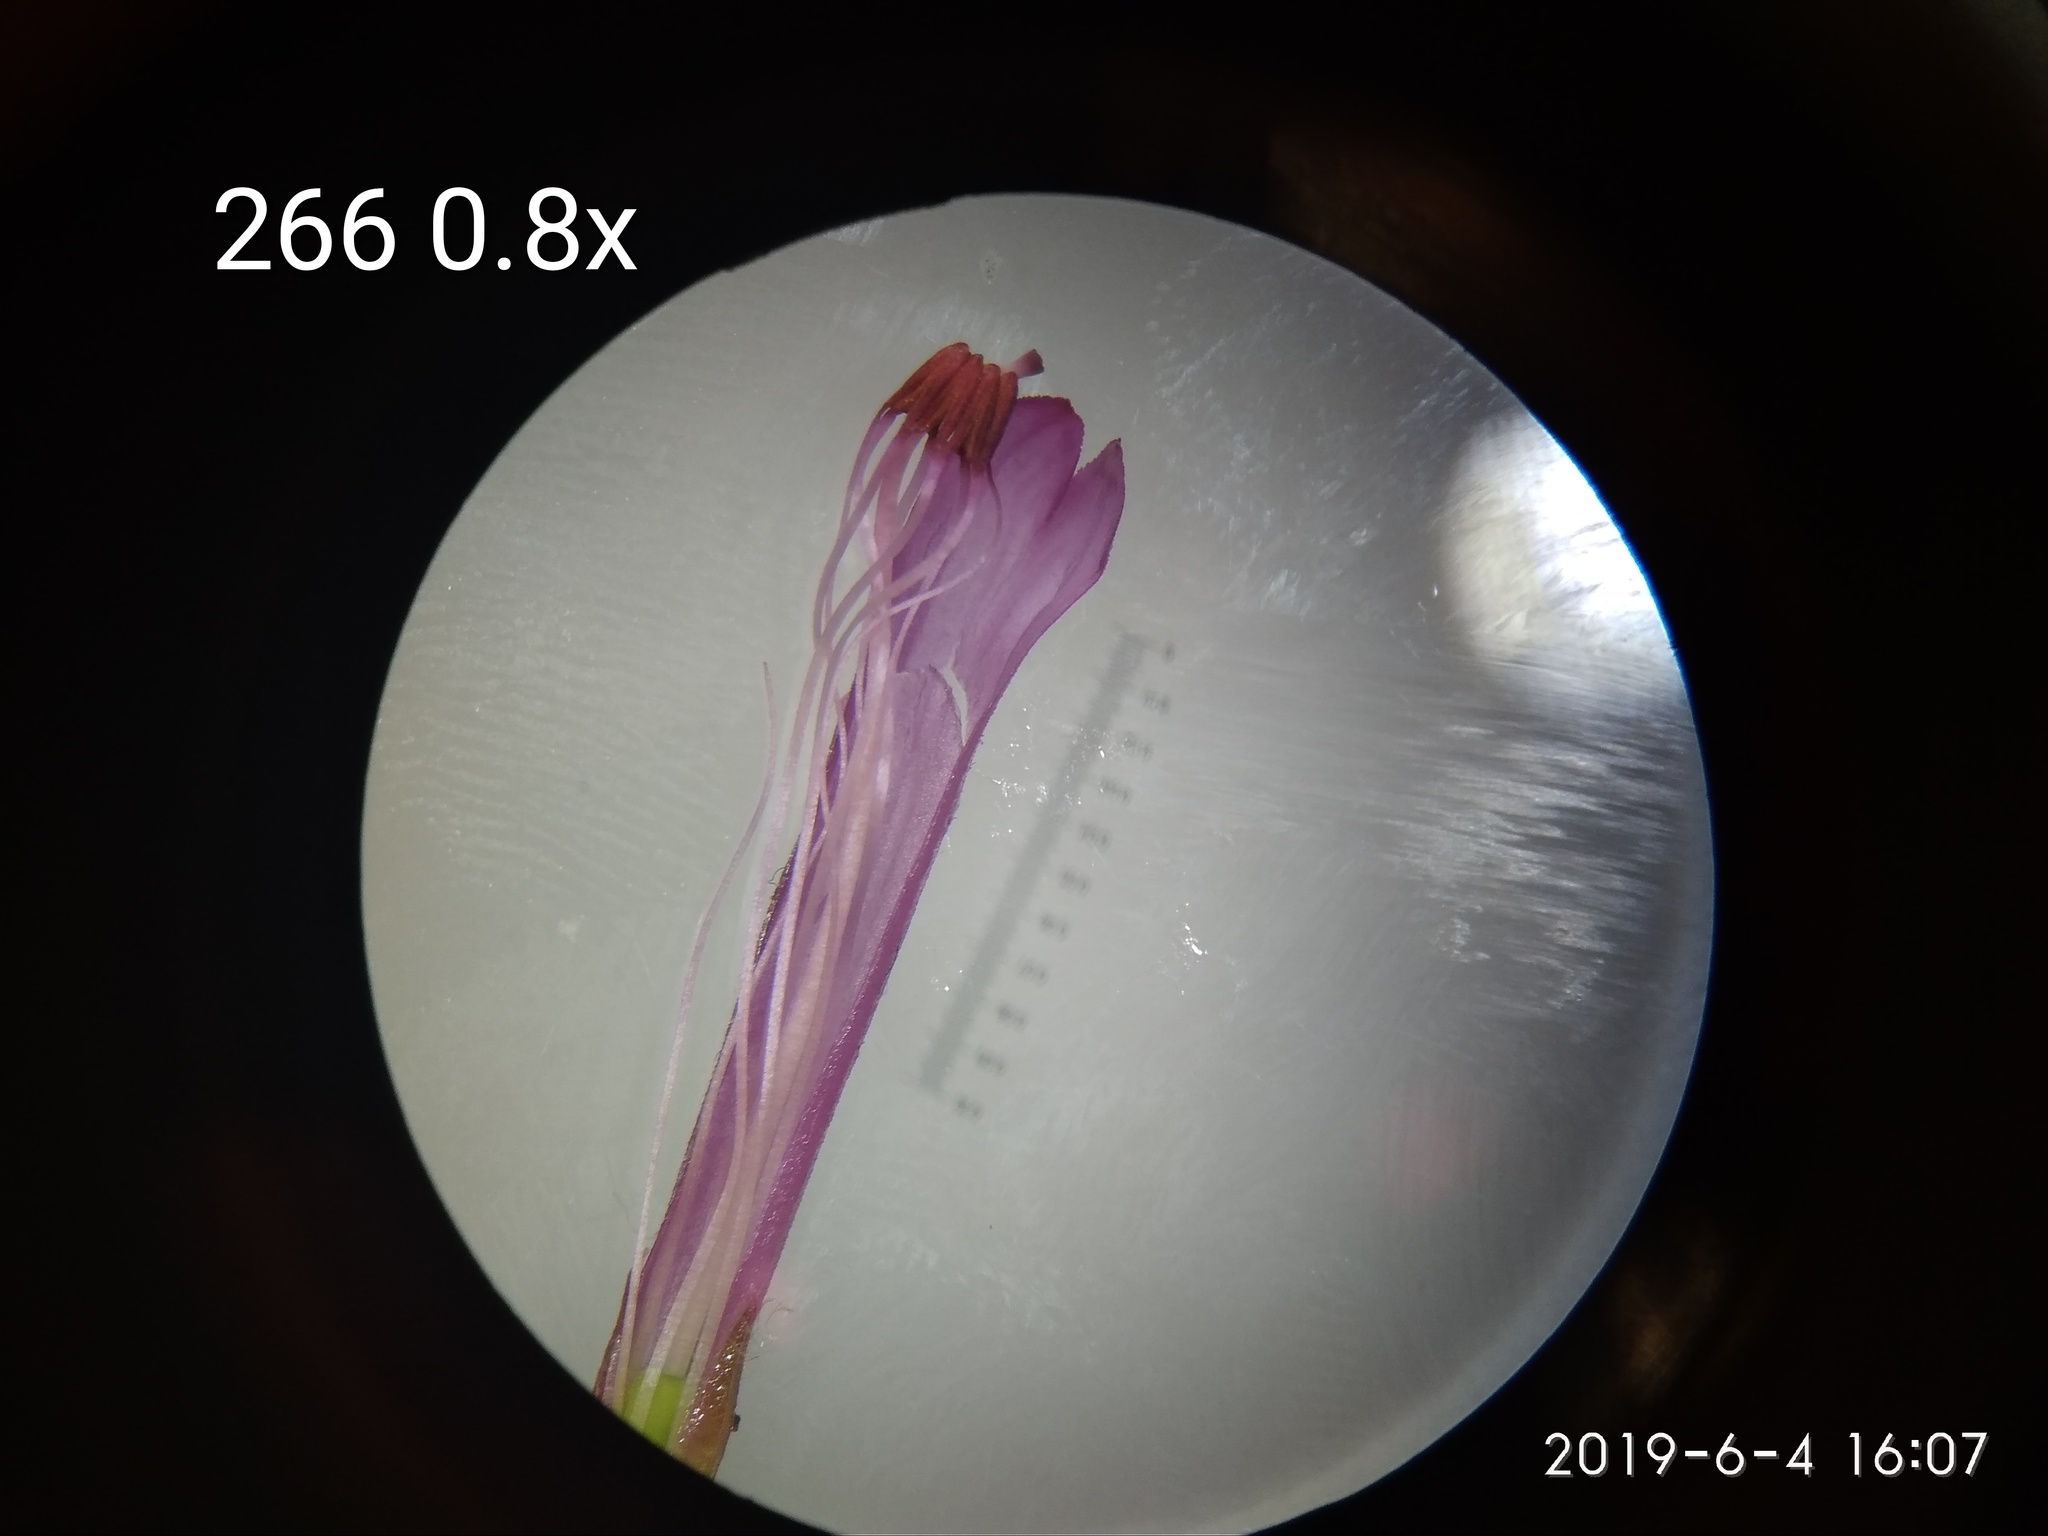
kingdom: Plantae
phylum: Tracheophyta
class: Magnoliopsida
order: Ericales
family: Ericaceae
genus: Erica
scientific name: Erica abietina
